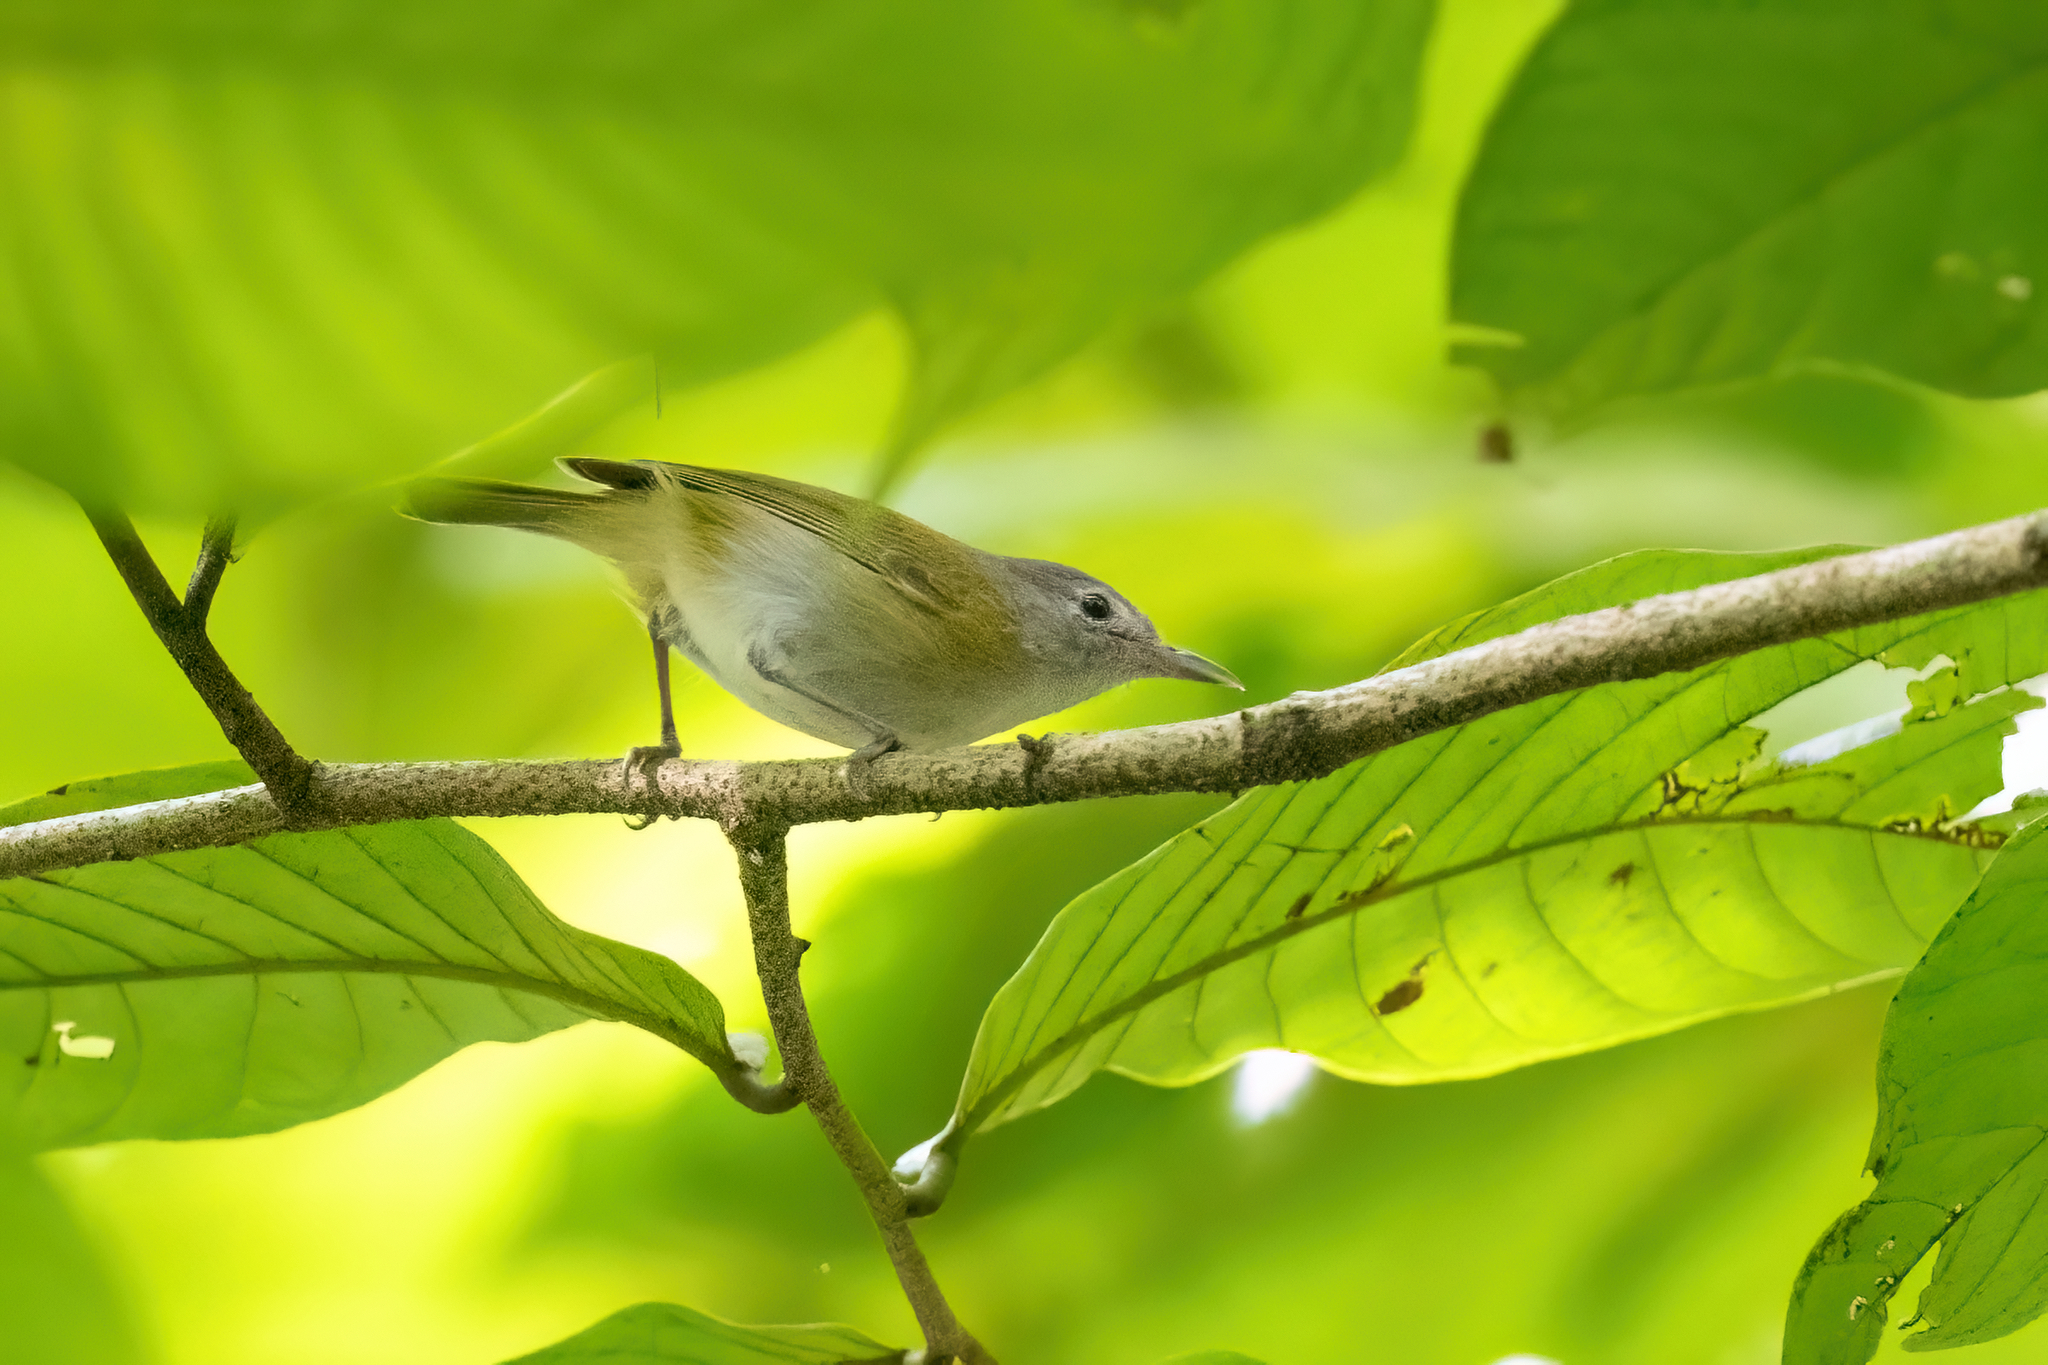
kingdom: Animalia
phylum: Chordata
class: Aves
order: Passeriformes
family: Vireonidae
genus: Hylophilus
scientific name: Hylophilus decurtatus
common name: Lesser greenlet
